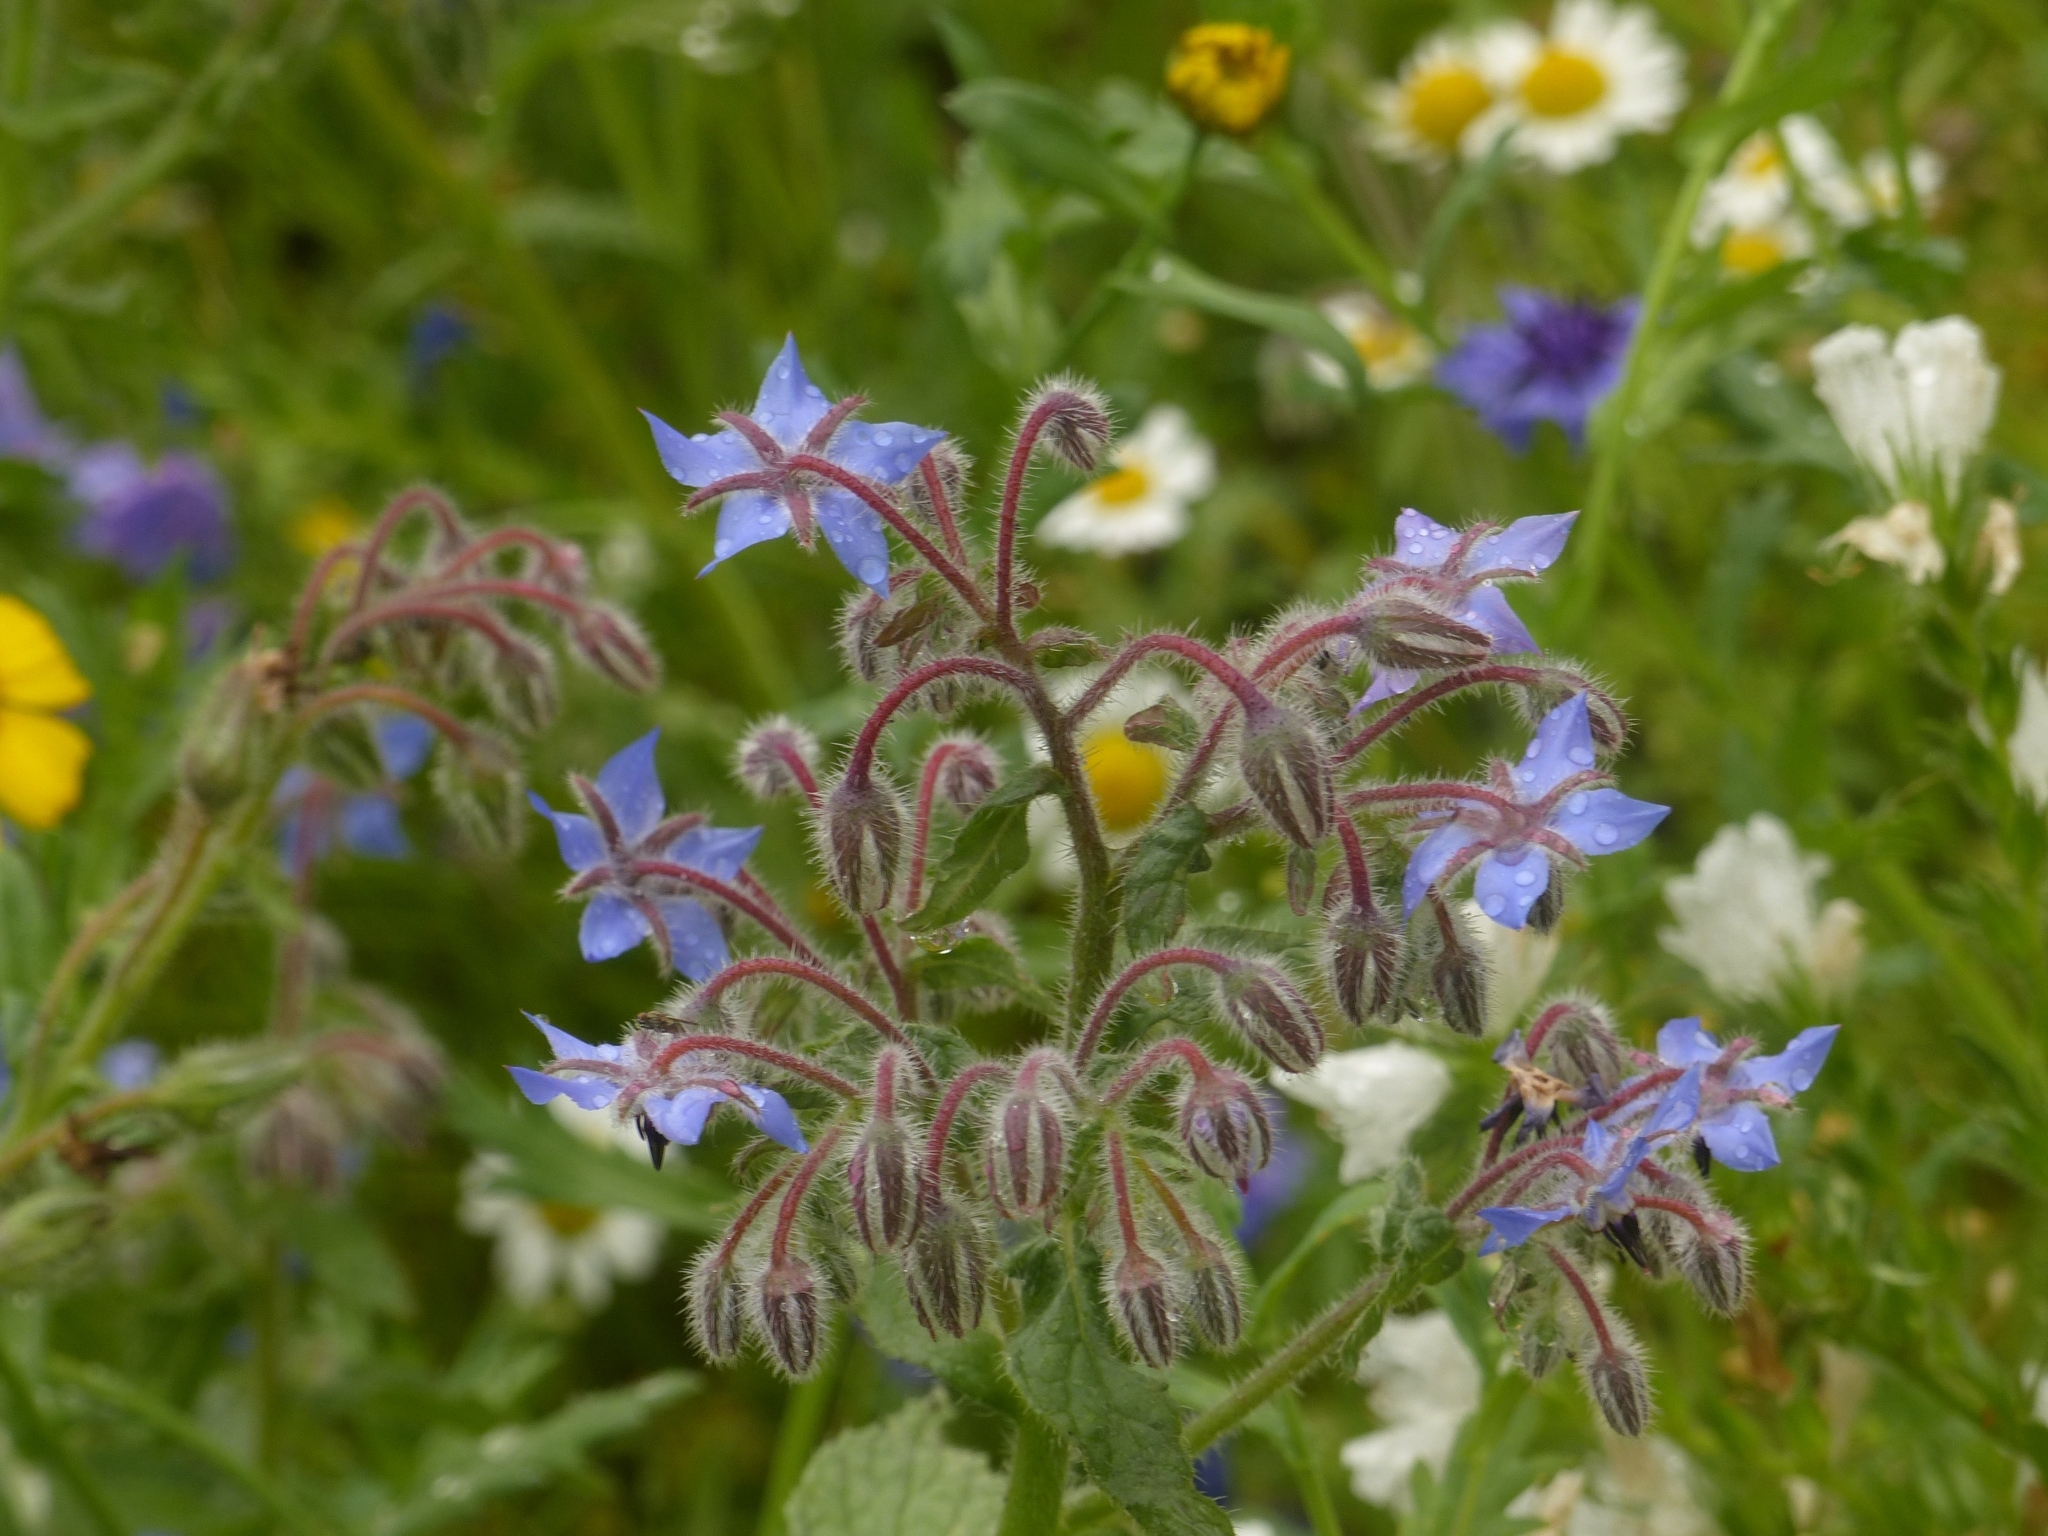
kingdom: Plantae
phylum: Tracheophyta
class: Magnoliopsida
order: Boraginales
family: Boraginaceae
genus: Borago
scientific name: Borago officinalis
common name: Borage
